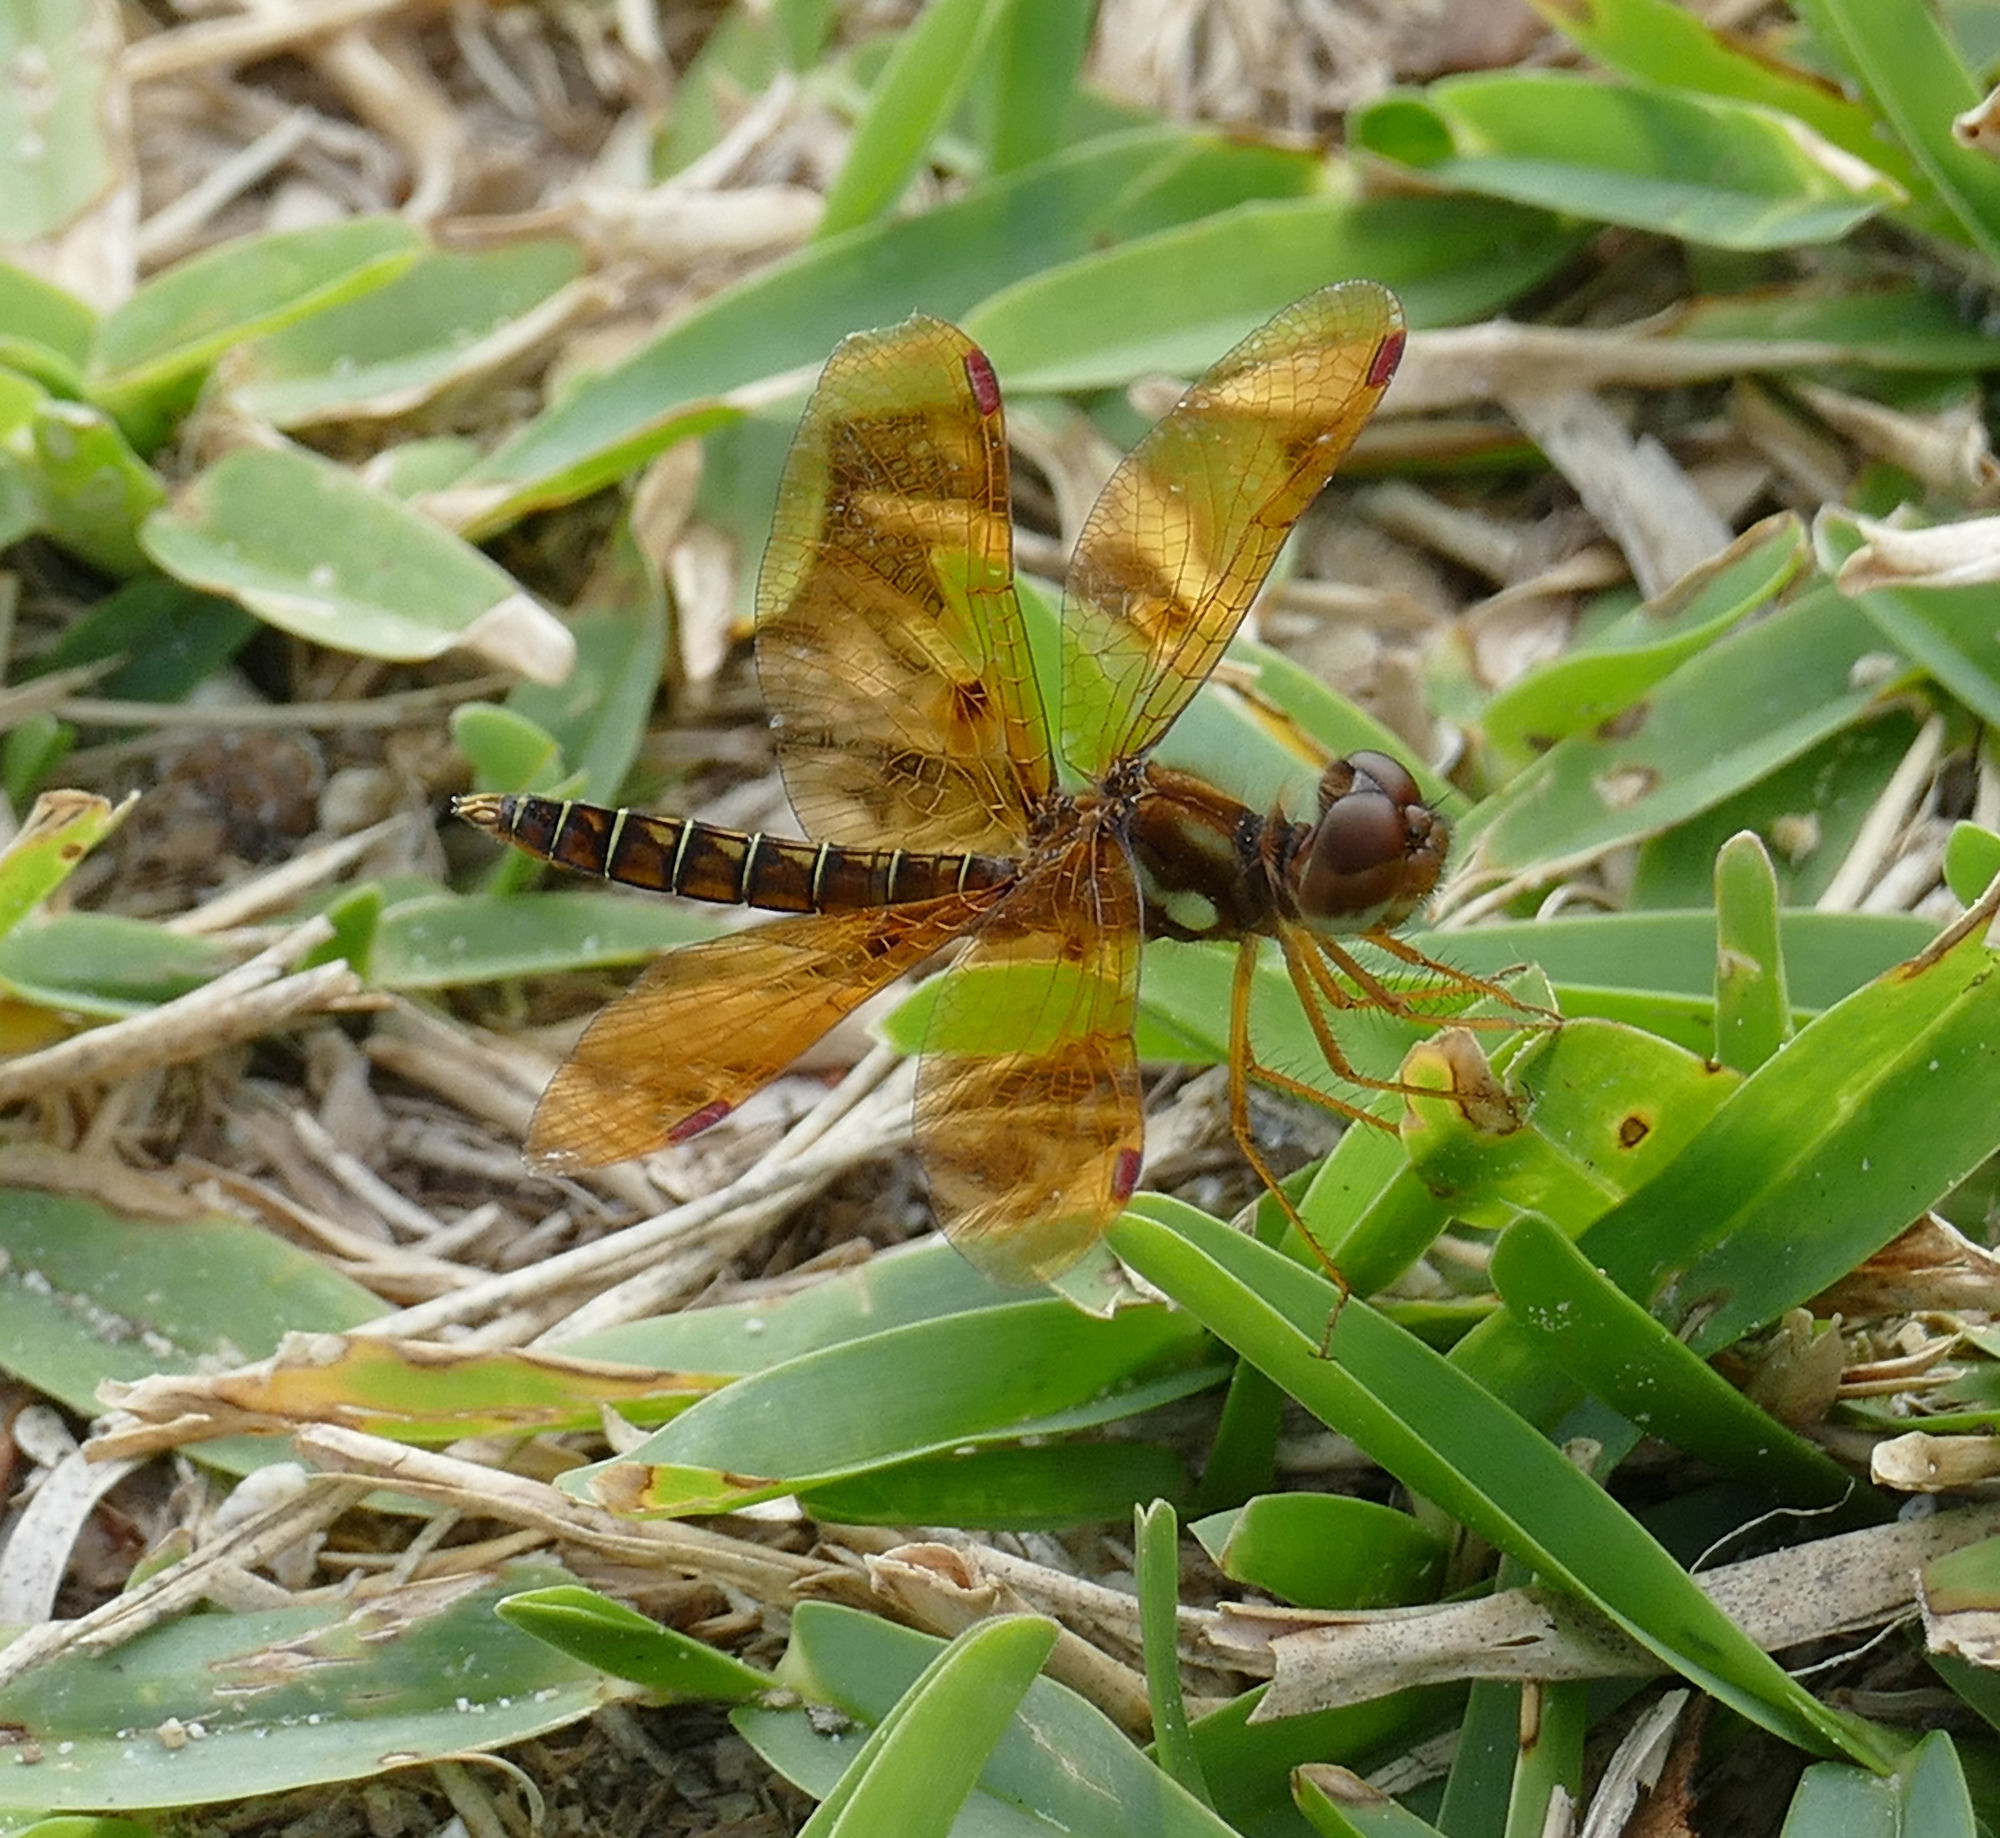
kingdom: Animalia
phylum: Arthropoda
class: Insecta
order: Odonata
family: Libellulidae
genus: Perithemis
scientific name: Perithemis tenera
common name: Eastern amberwing
